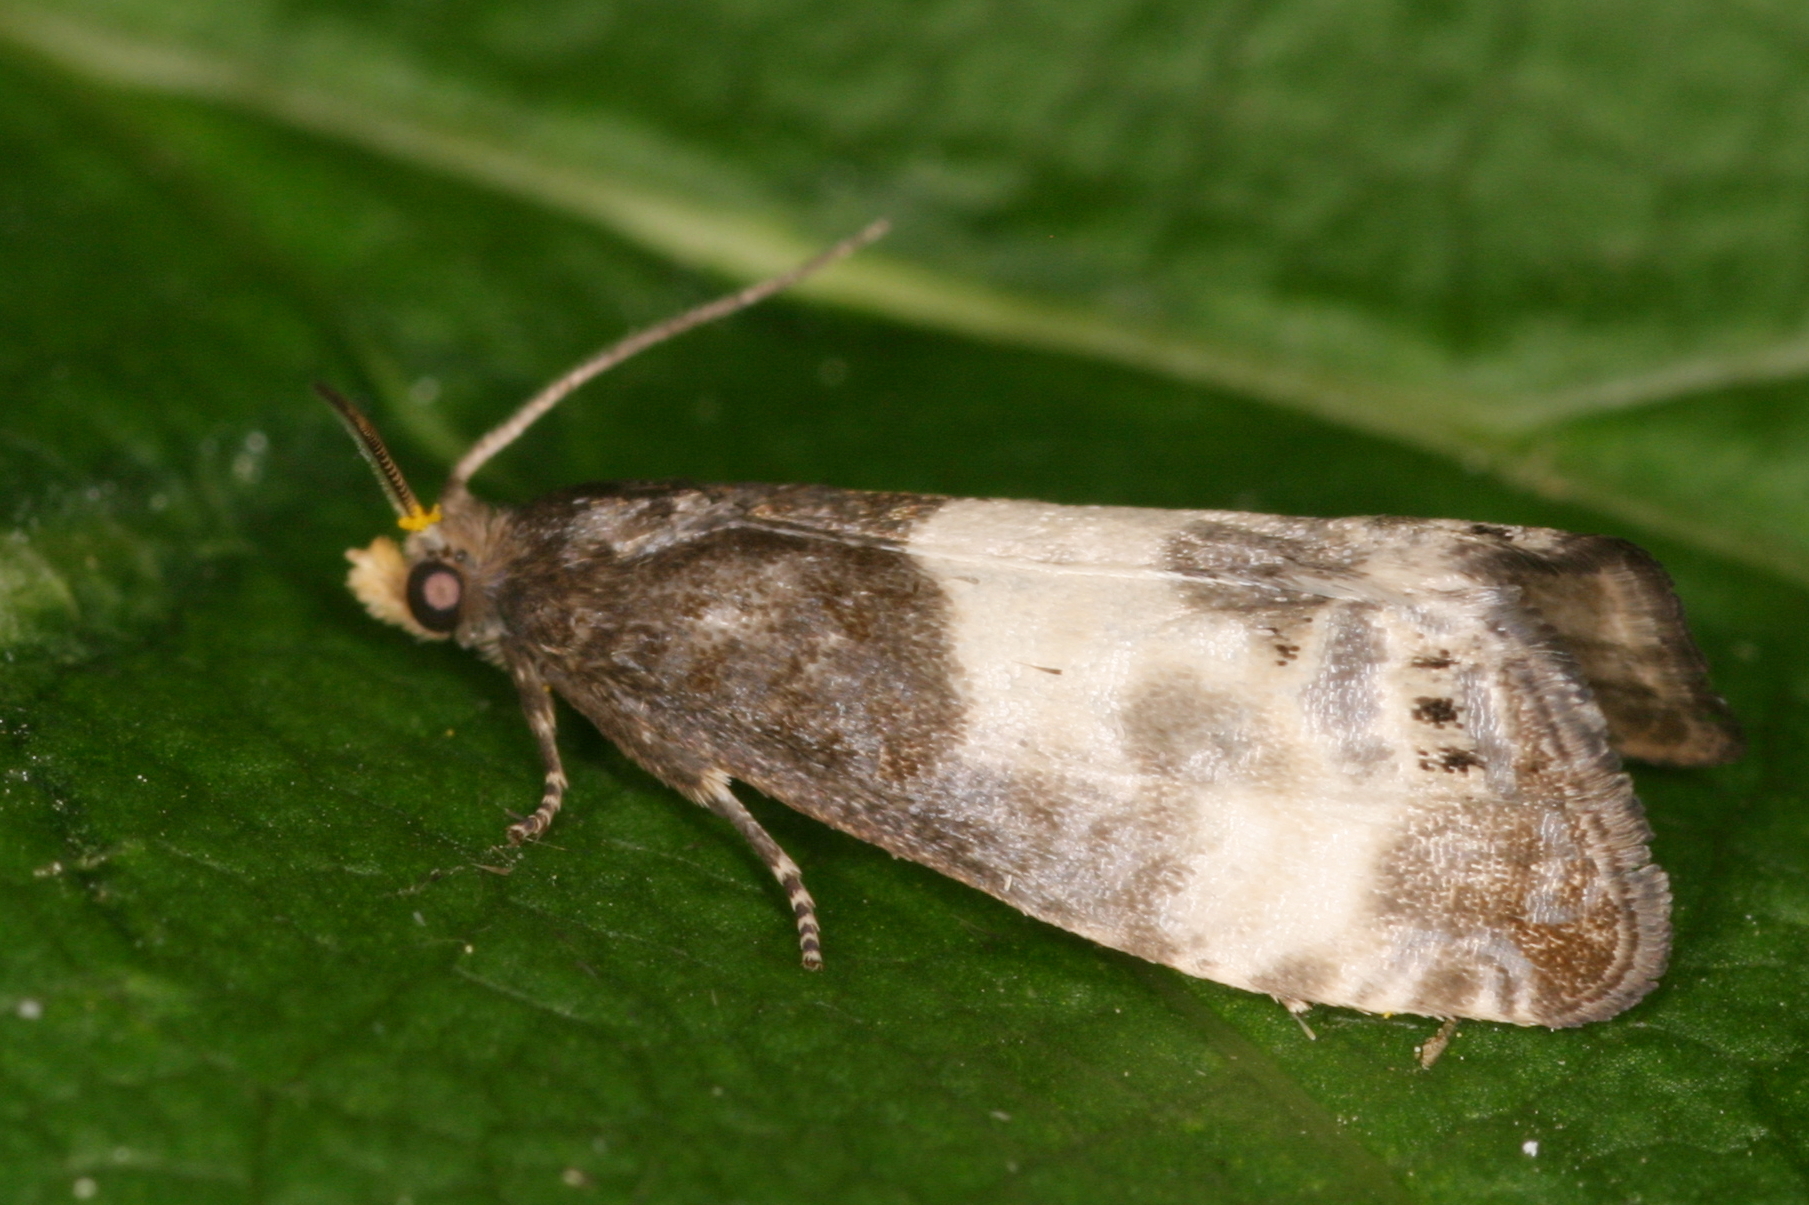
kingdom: Animalia
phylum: Arthropoda
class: Insecta
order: Lepidoptera
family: Tortricidae
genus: Notocelia
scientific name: Notocelia cynosbatella
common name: Yellow-faced bell moth
